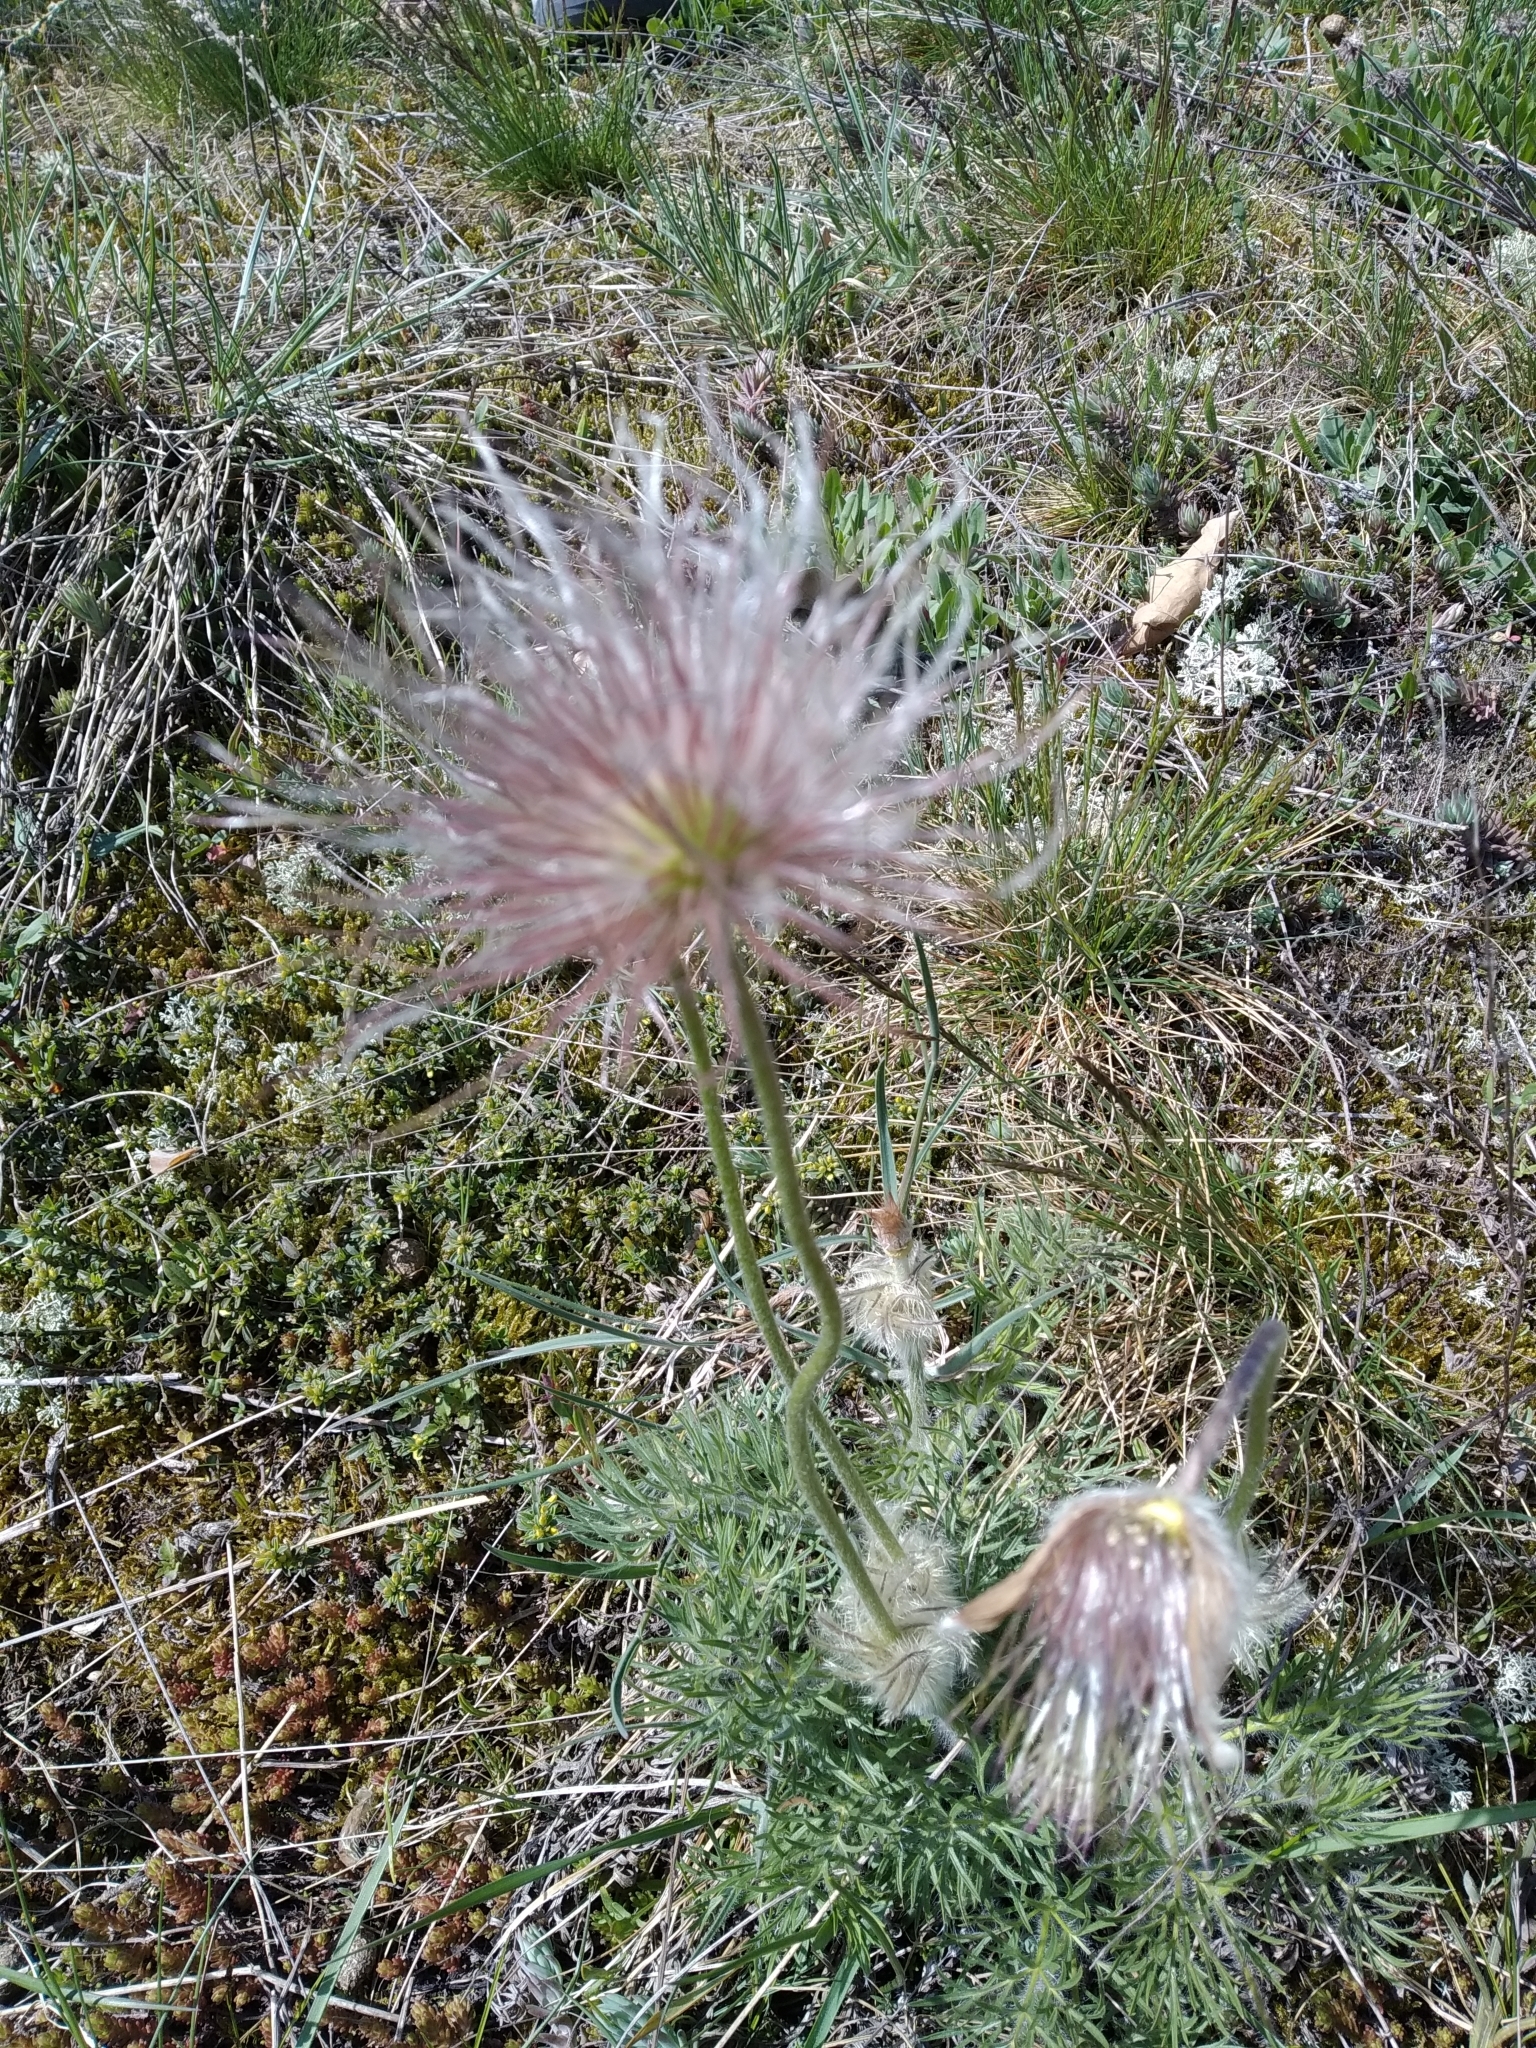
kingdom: Plantae
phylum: Tracheophyta
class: Magnoliopsida
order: Ranunculales
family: Ranunculaceae
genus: Pulsatilla
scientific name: Pulsatilla grandis
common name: Greater pasque flower
